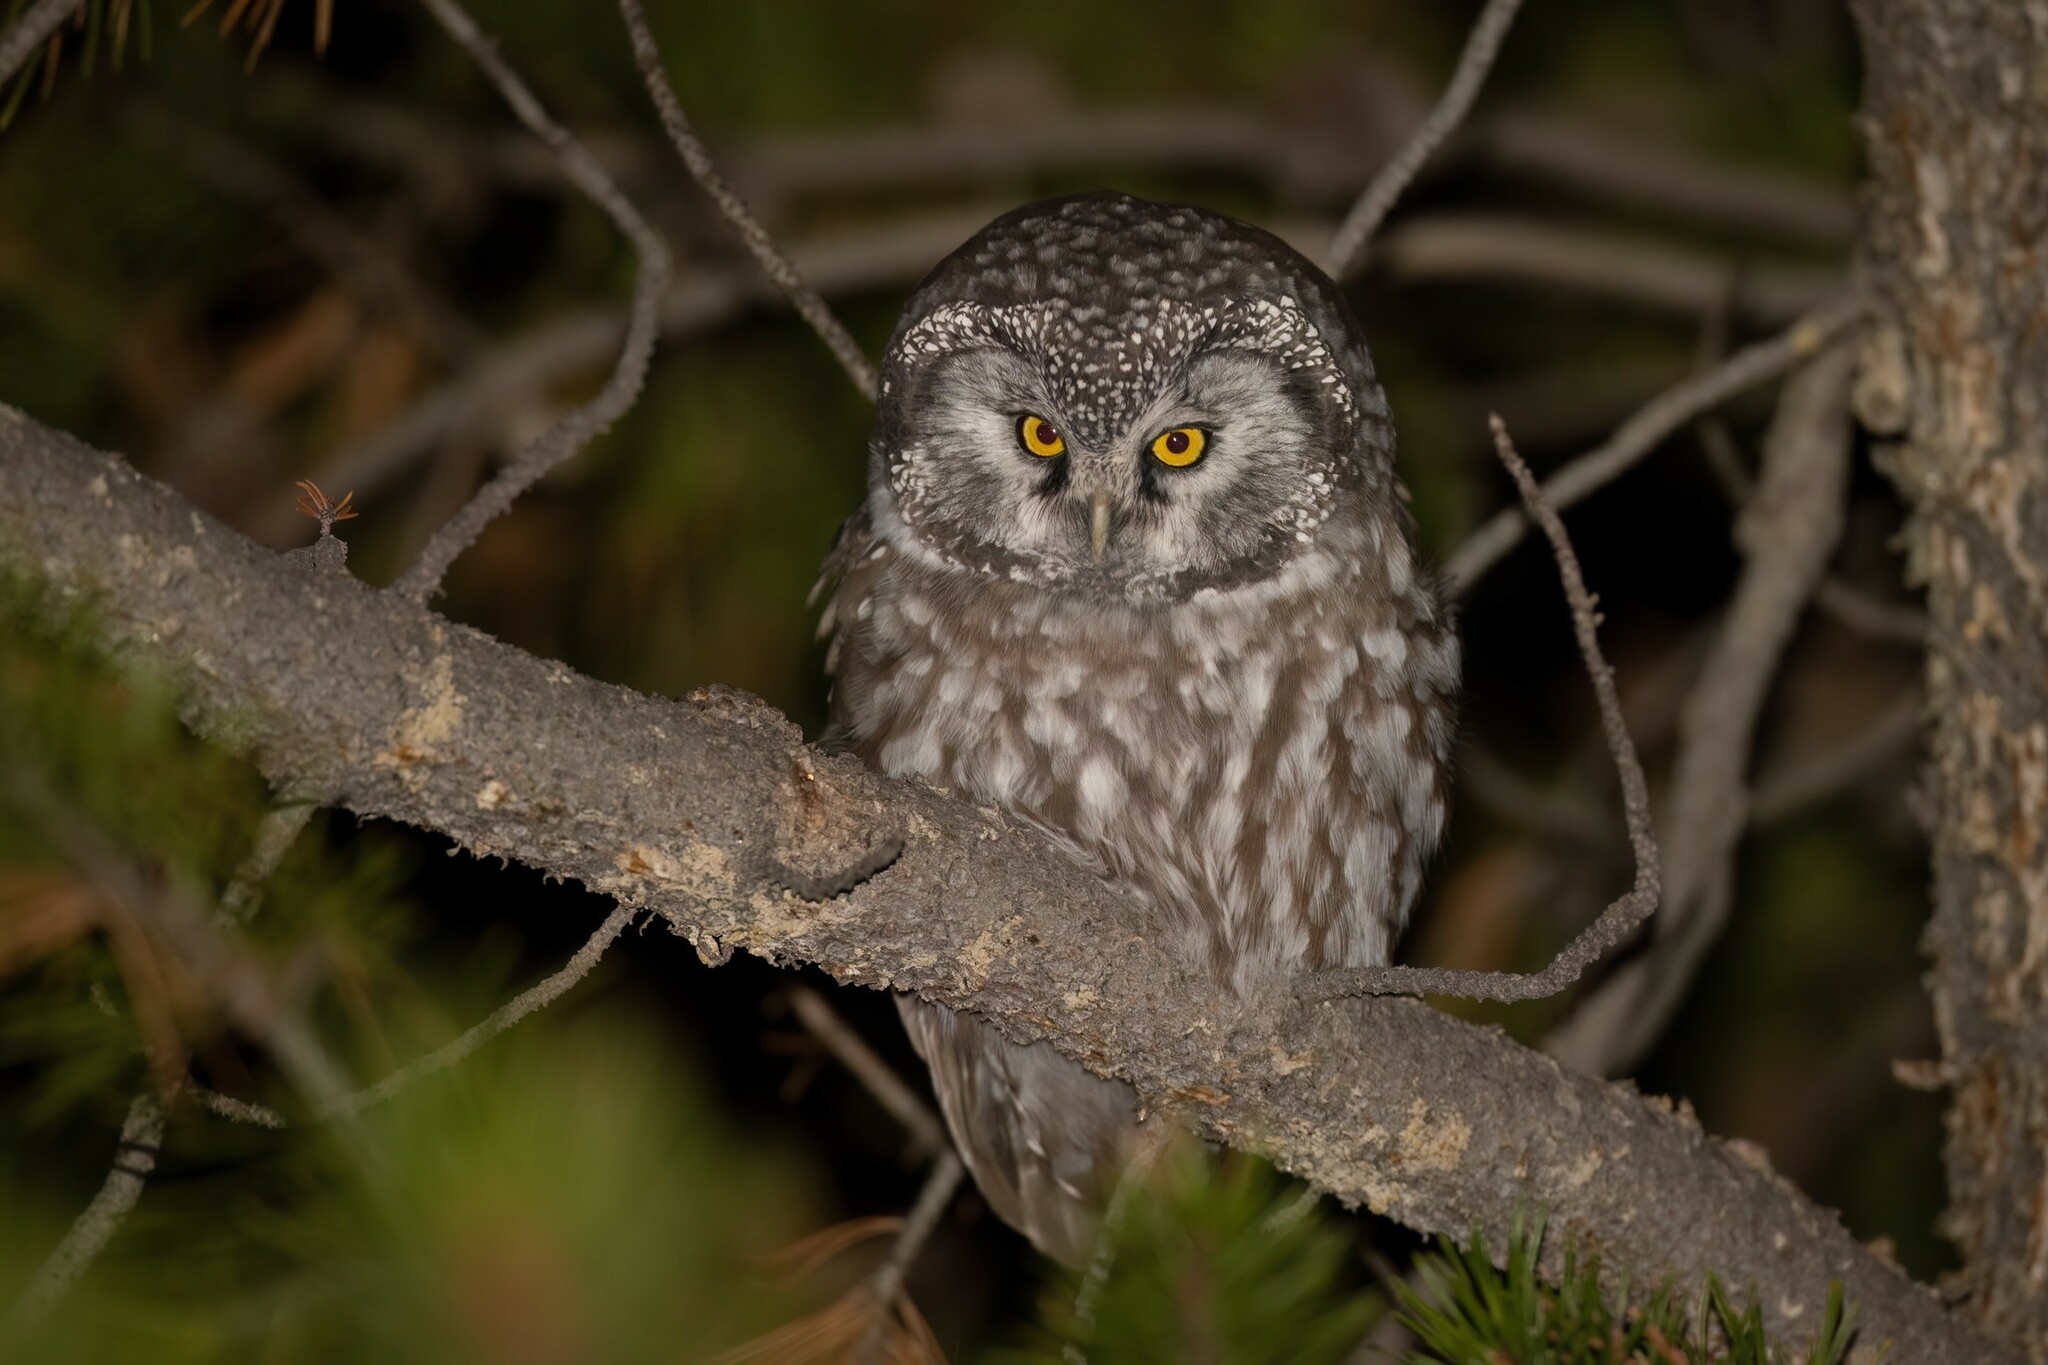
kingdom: Animalia
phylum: Chordata
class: Aves
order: Strigiformes
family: Strigidae
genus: Aegolius
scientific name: Aegolius funereus
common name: Boreal owl
